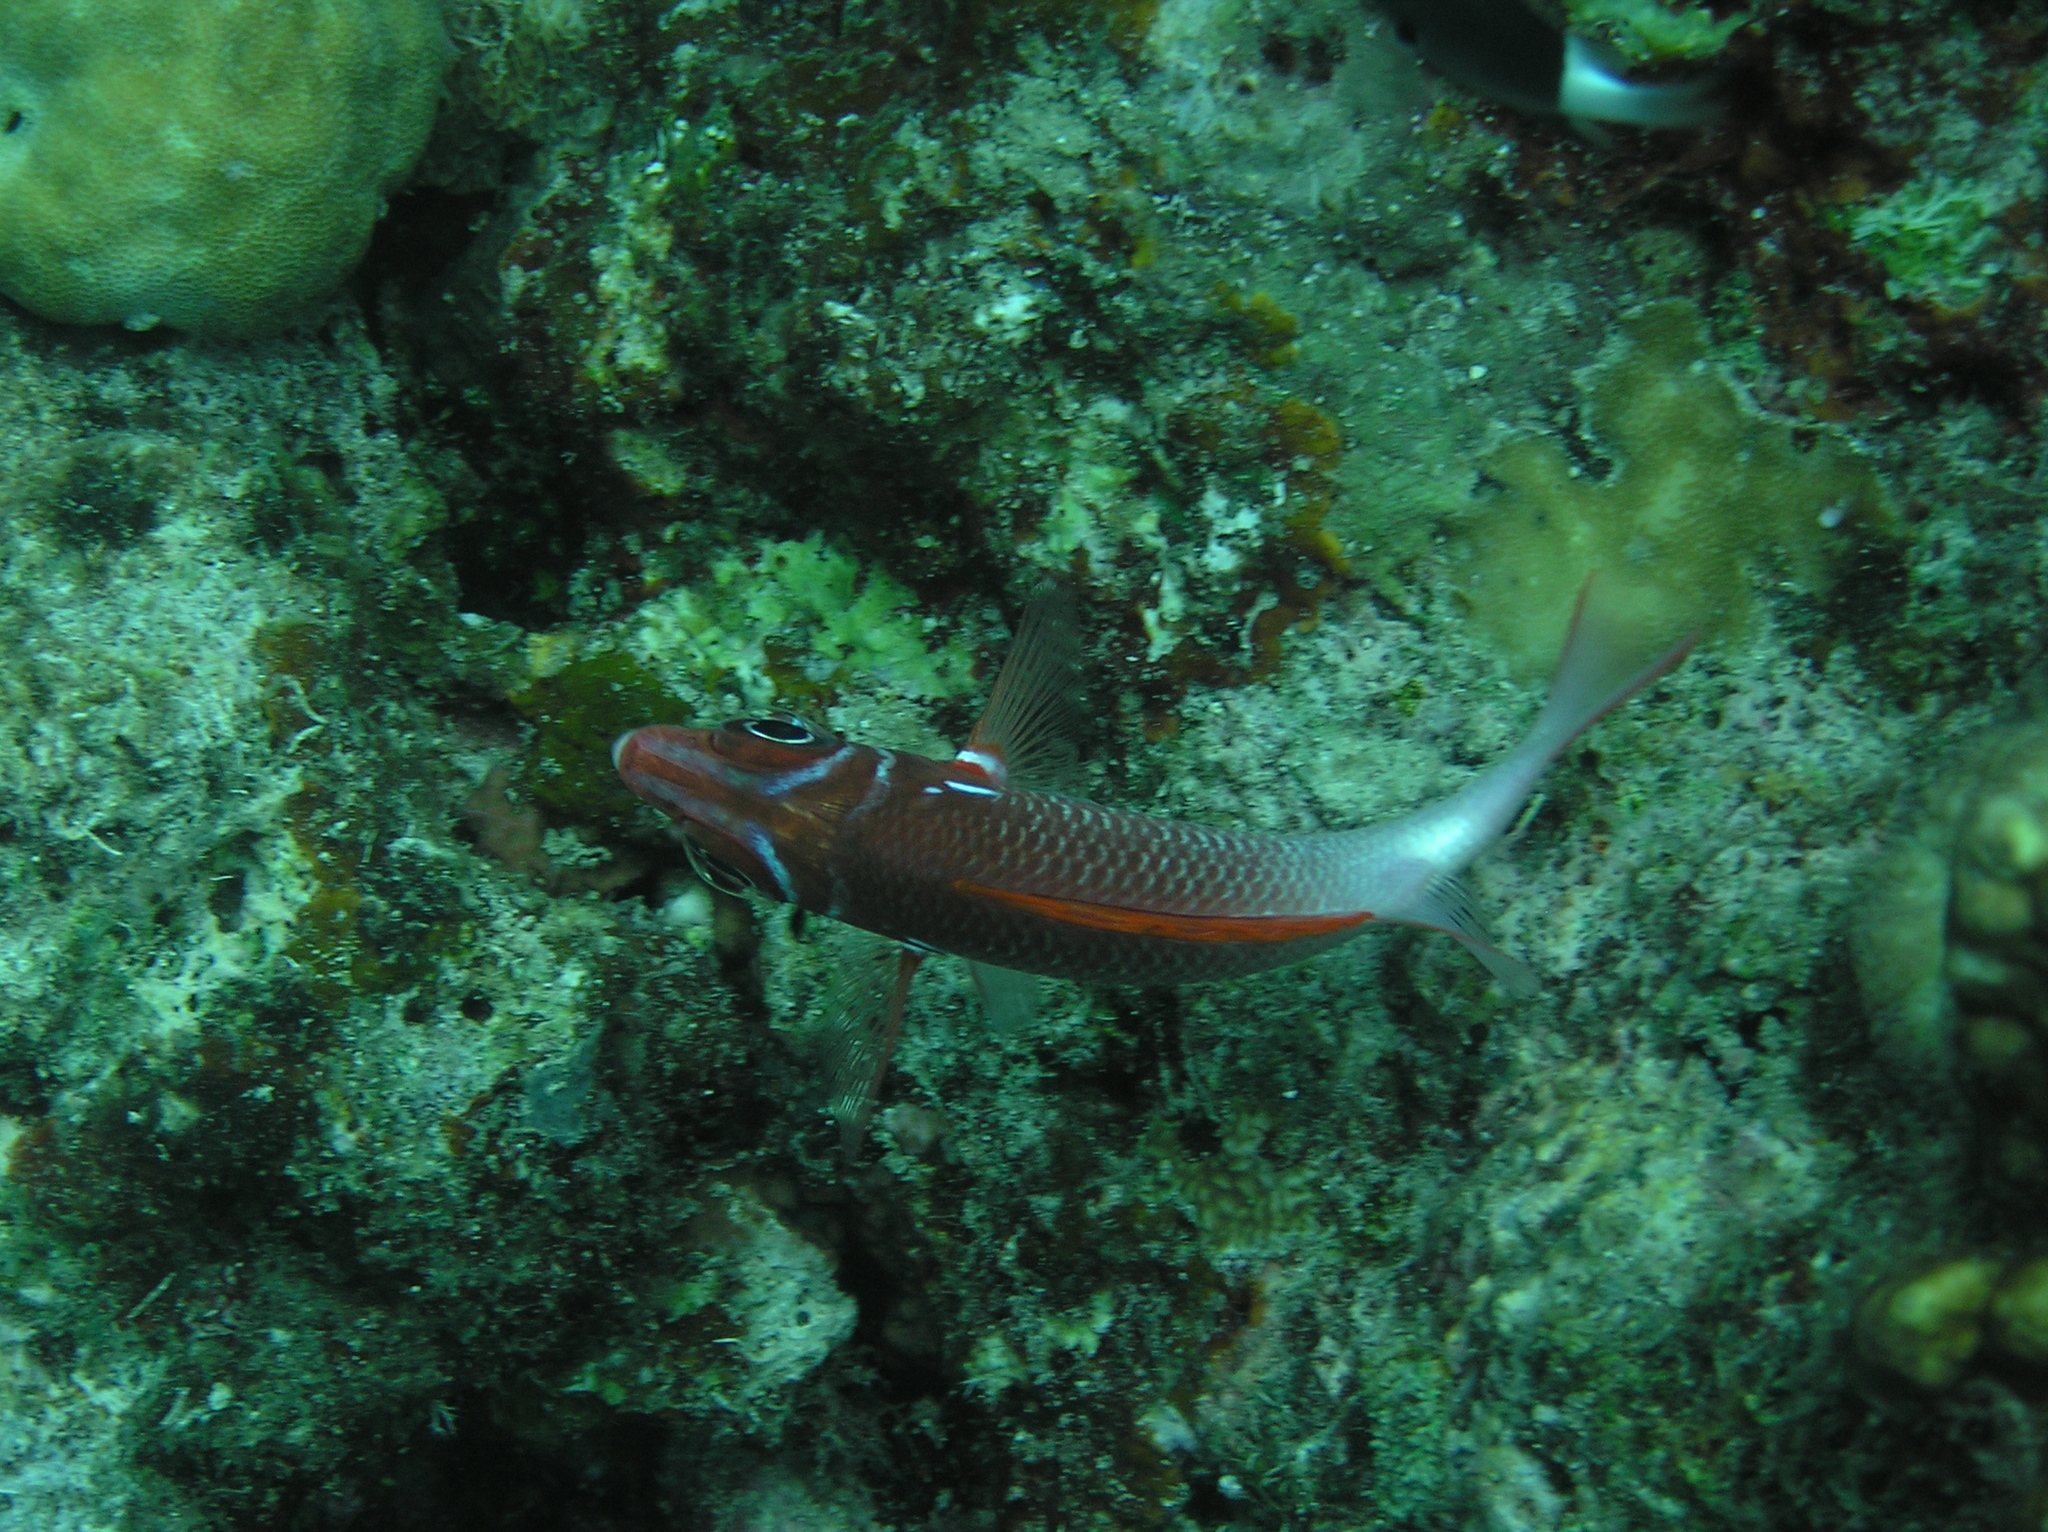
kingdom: Animalia
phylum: Chordata
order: Beryciformes
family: Holocentridae
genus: Sargocentron
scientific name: Sargocentron caudimaculatum
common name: Fanfin soldier
